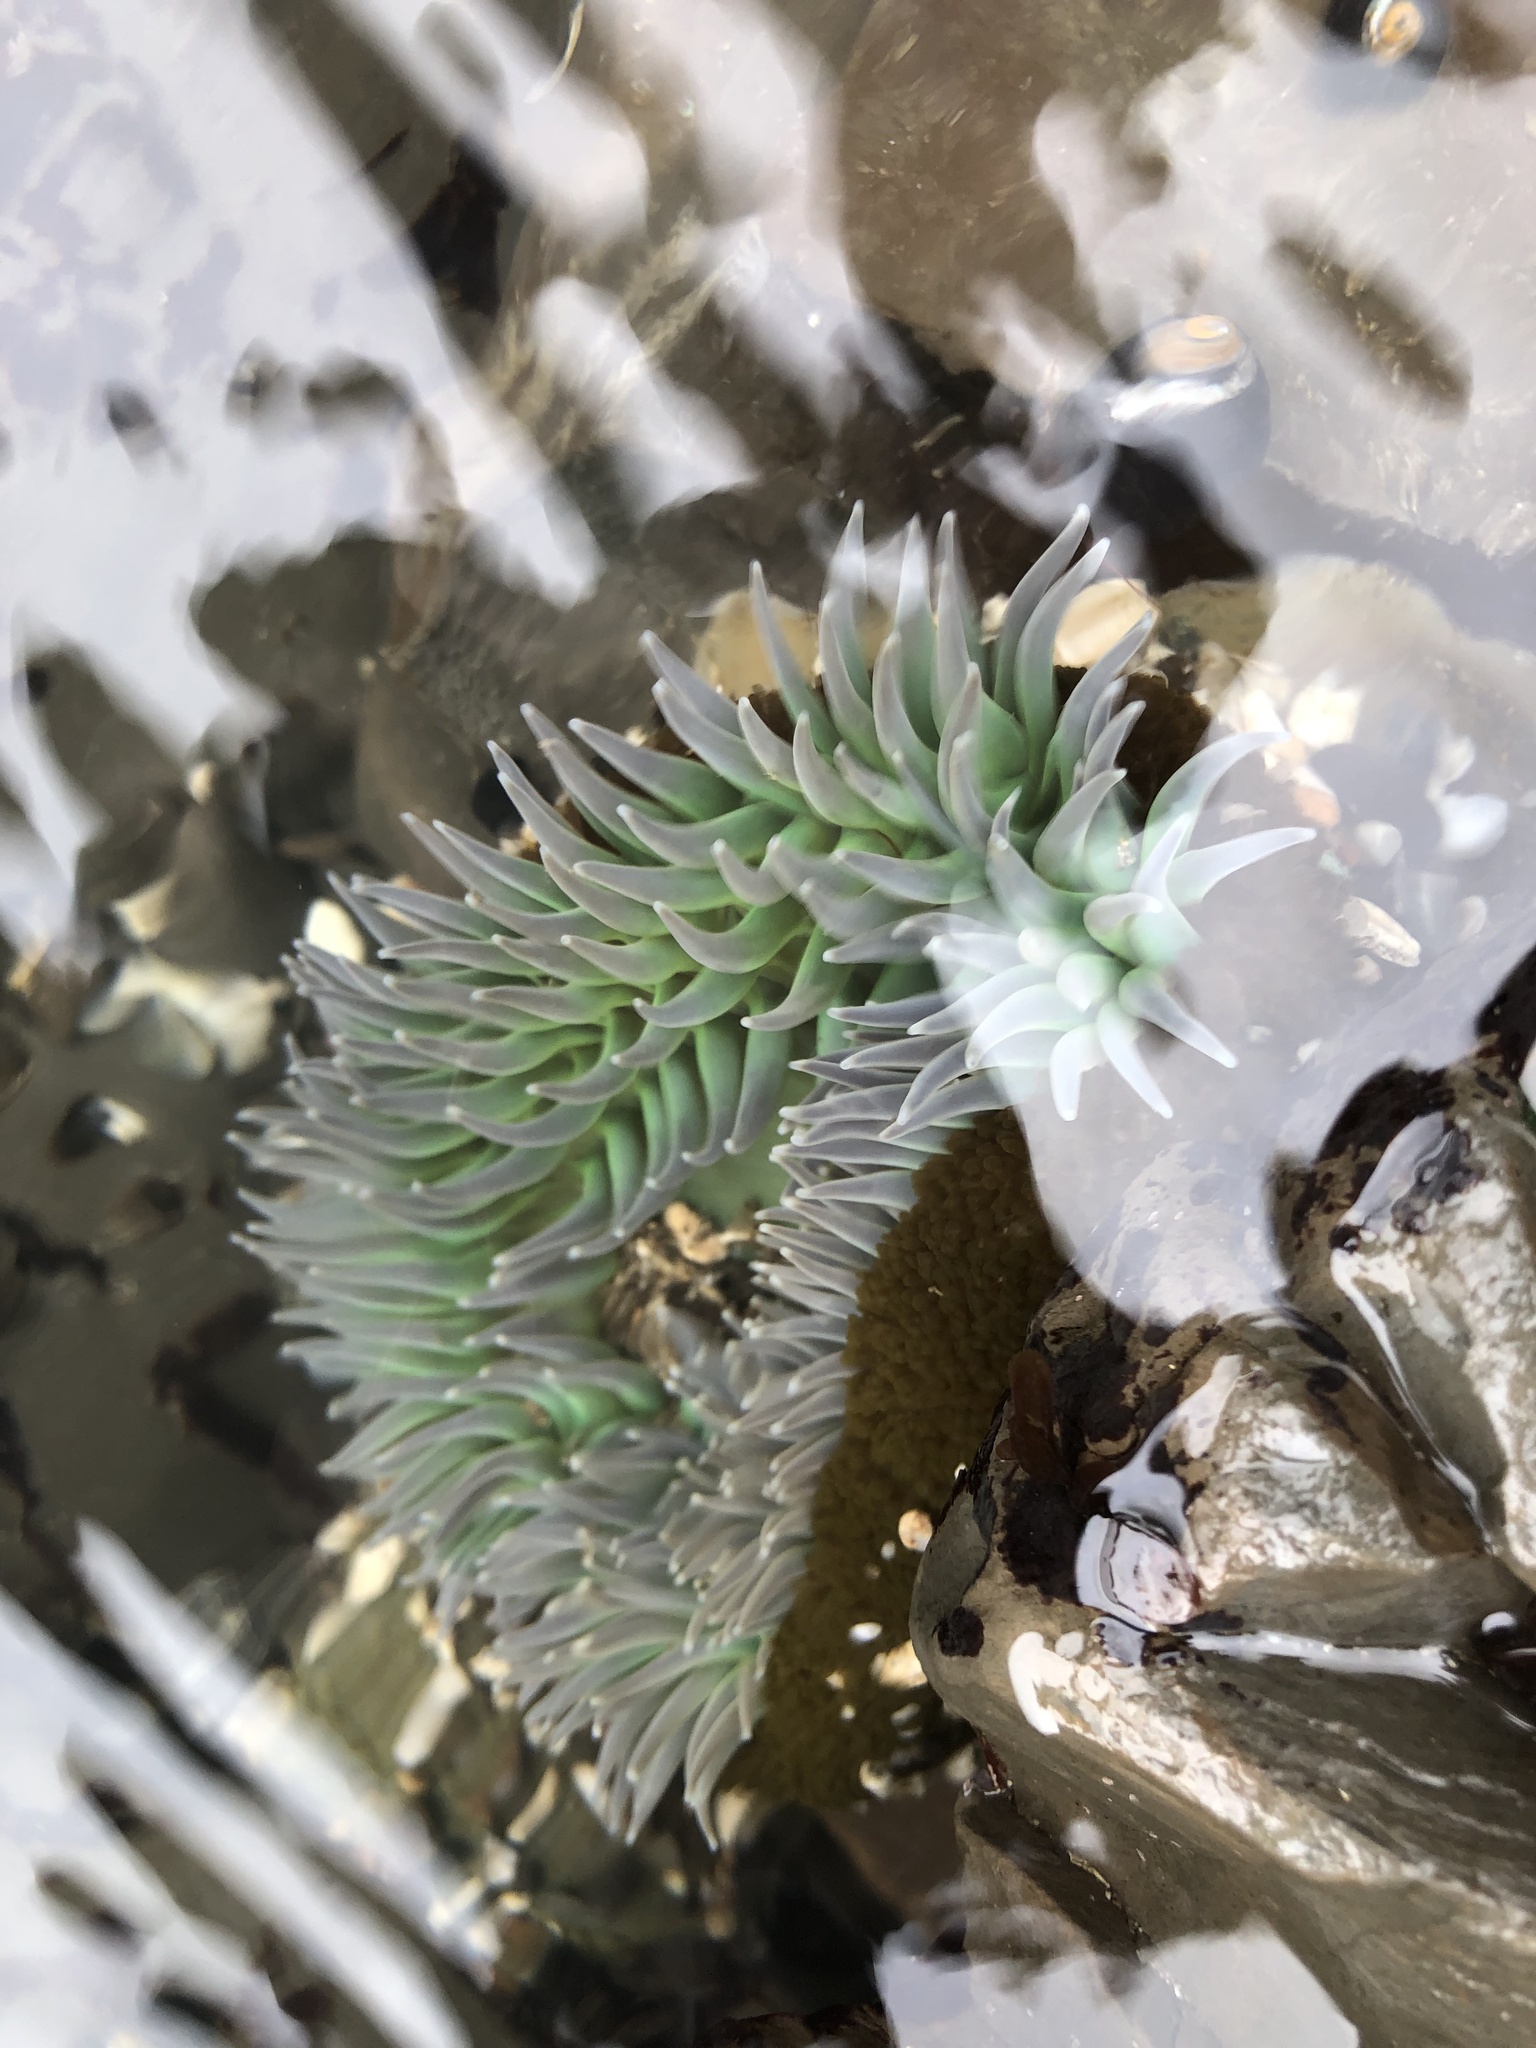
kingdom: Animalia
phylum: Cnidaria
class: Anthozoa
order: Actiniaria
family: Actiniidae
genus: Anthopleura
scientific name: Anthopleura xanthogrammica
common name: Giant green anemone
